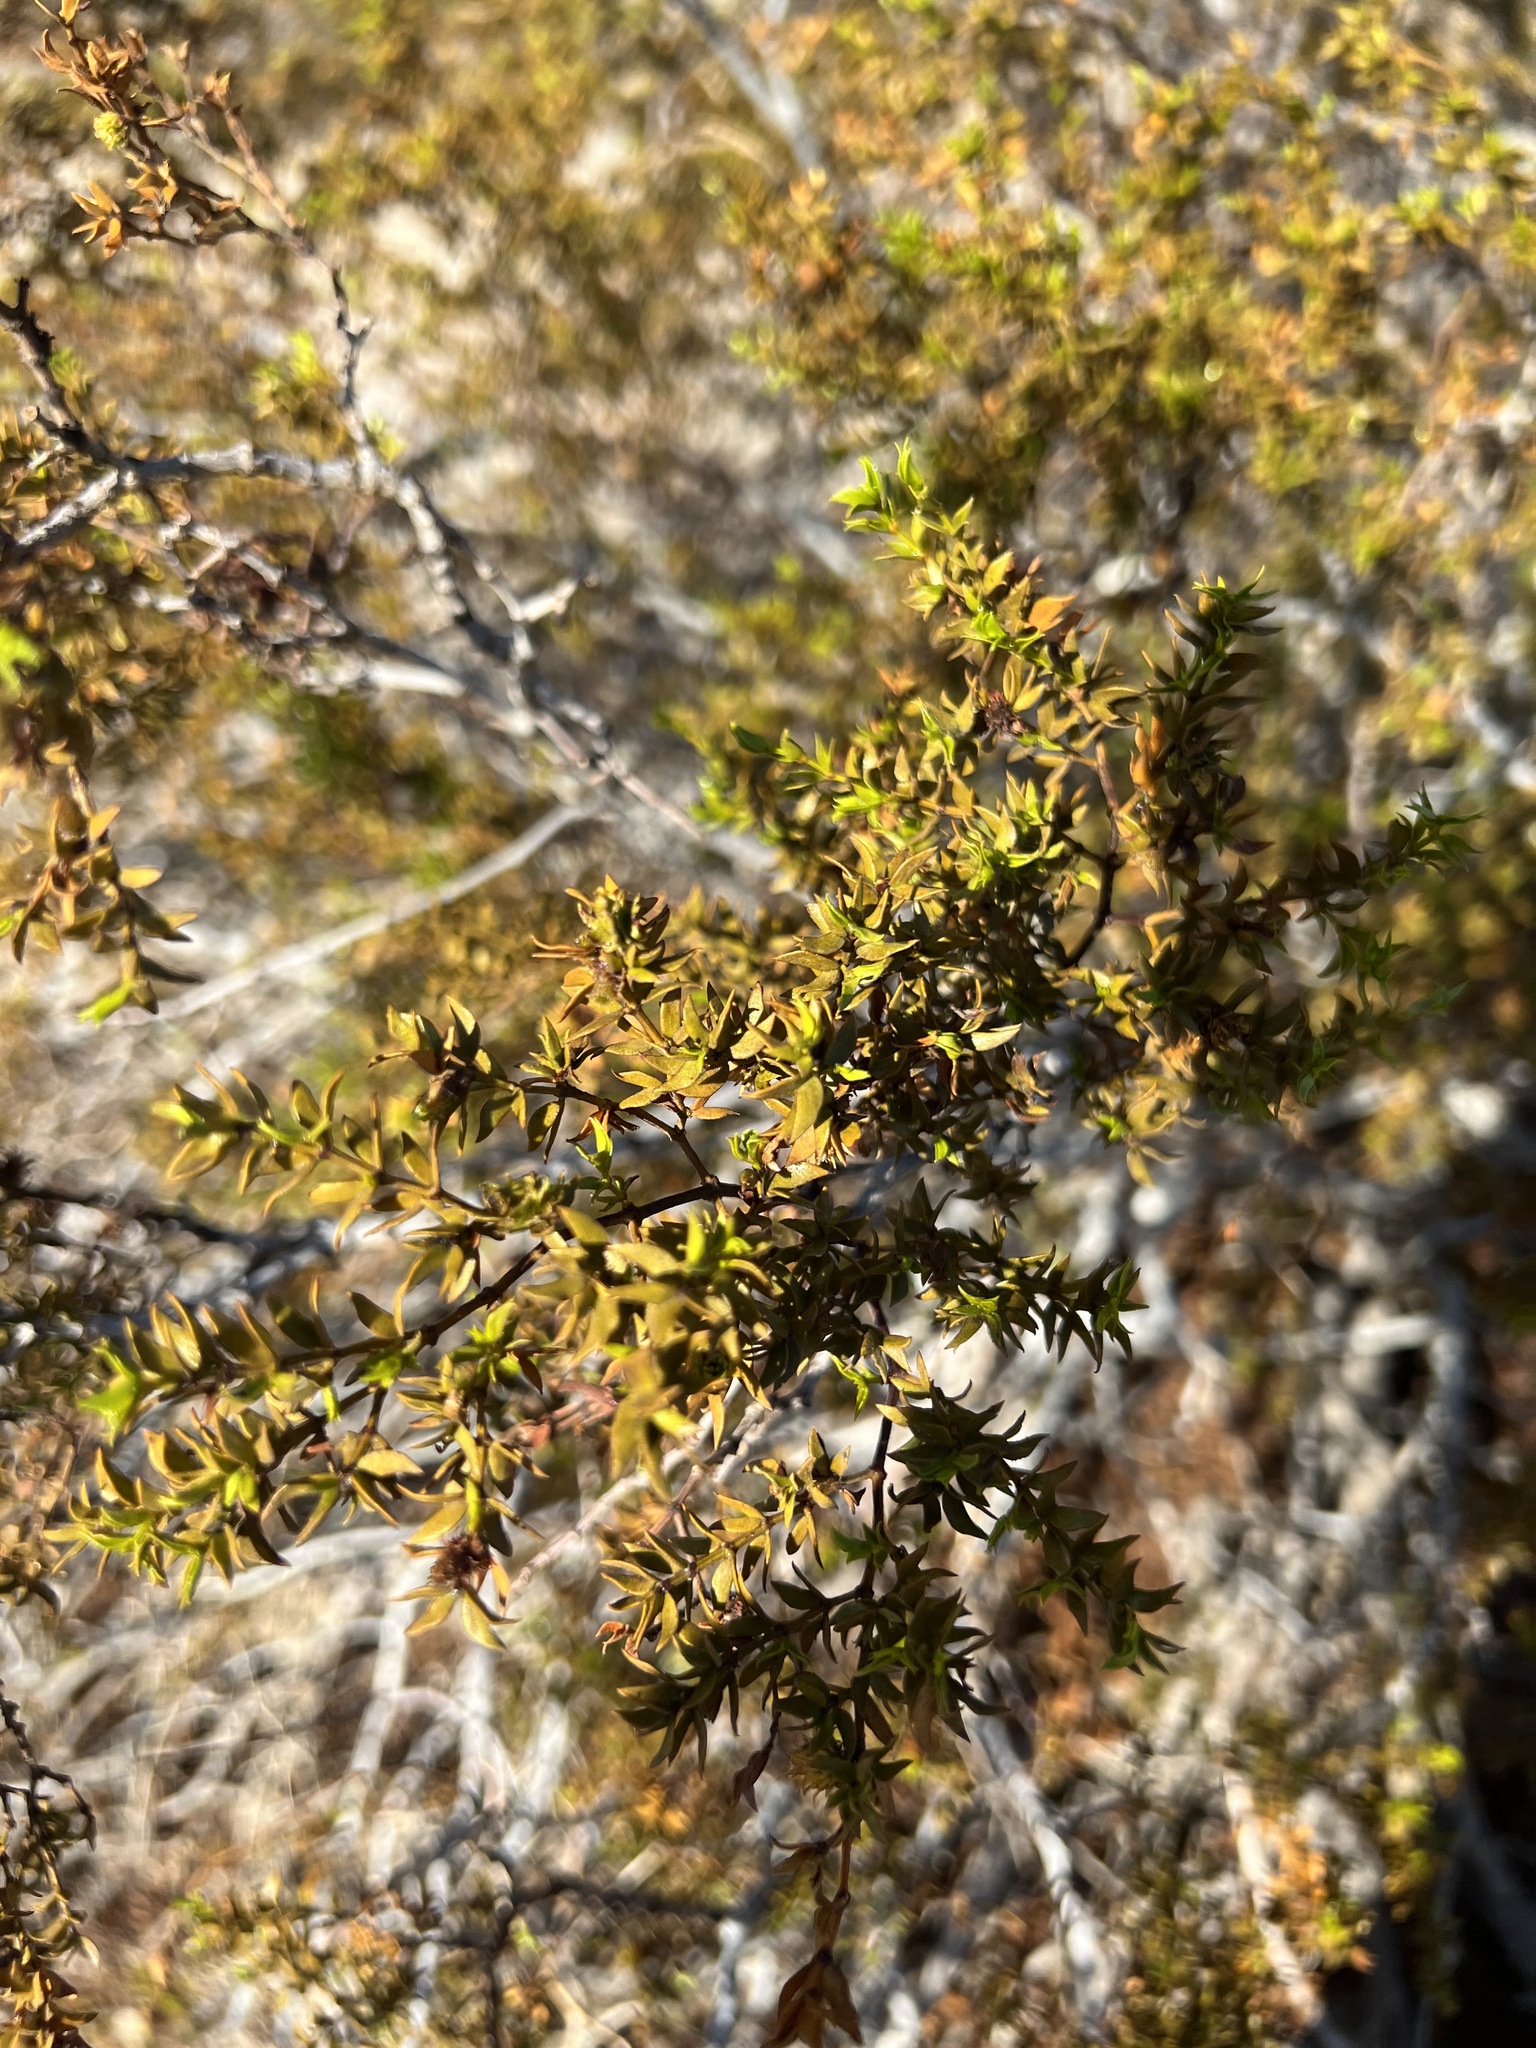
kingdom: Plantae
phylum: Tracheophyta
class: Magnoliopsida
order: Zygophyllales
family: Zygophyllaceae
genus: Larrea
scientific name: Larrea tridentata
